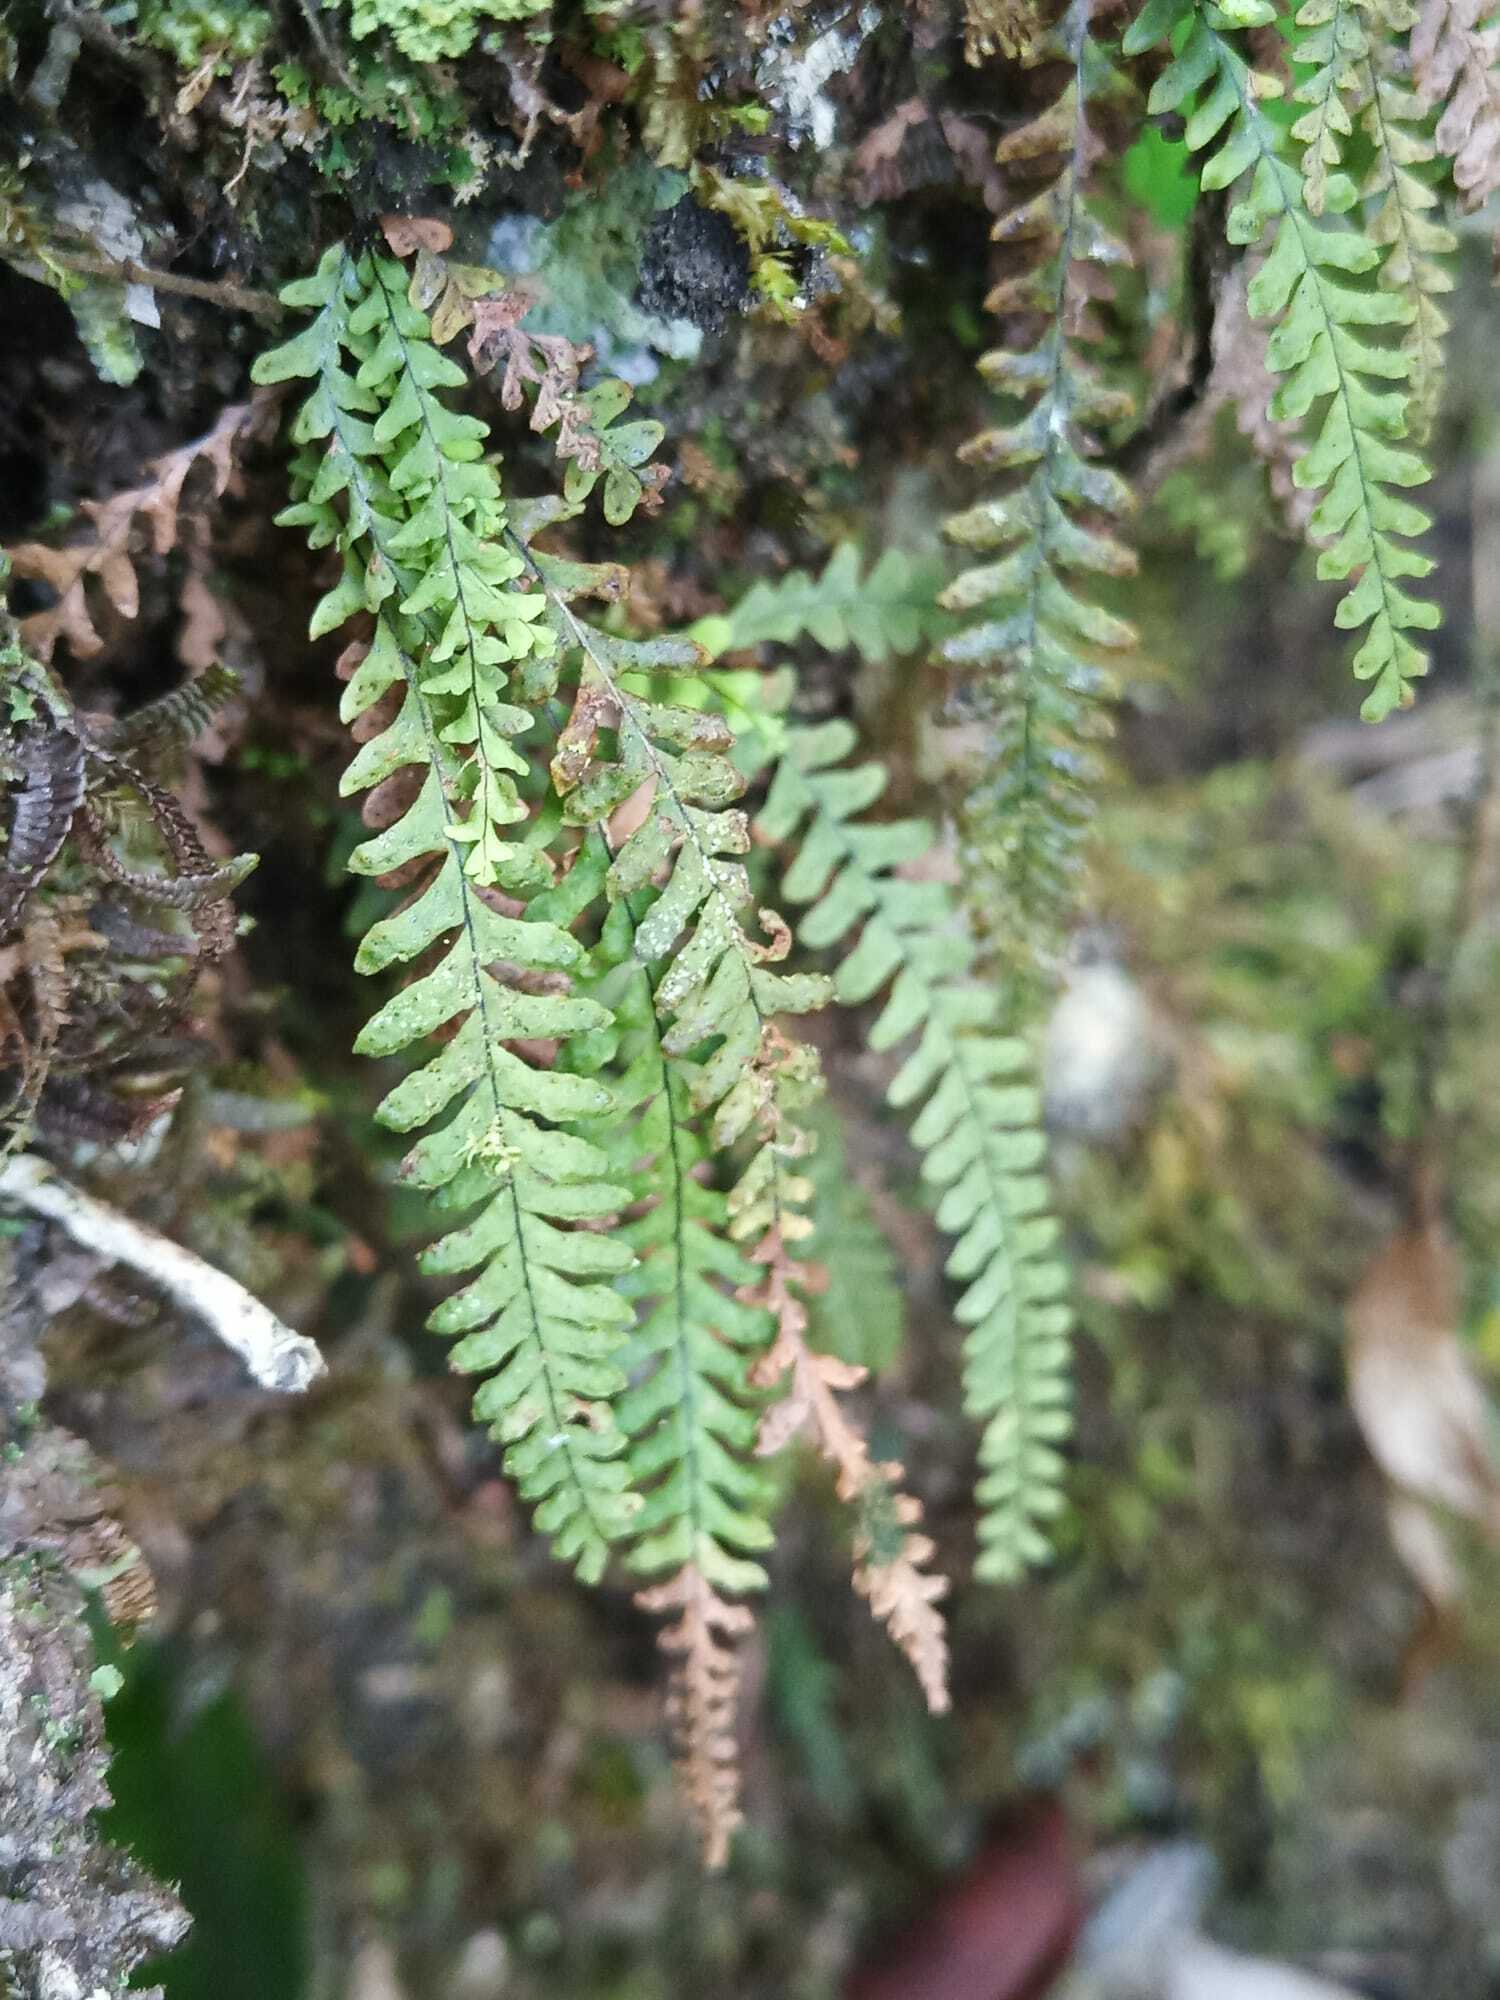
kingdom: Plantae
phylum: Tracheophyta
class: Polypodiopsida
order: Polypodiales
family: Polypodiaceae
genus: Lellingeria
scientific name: Lellingeria suspensa
